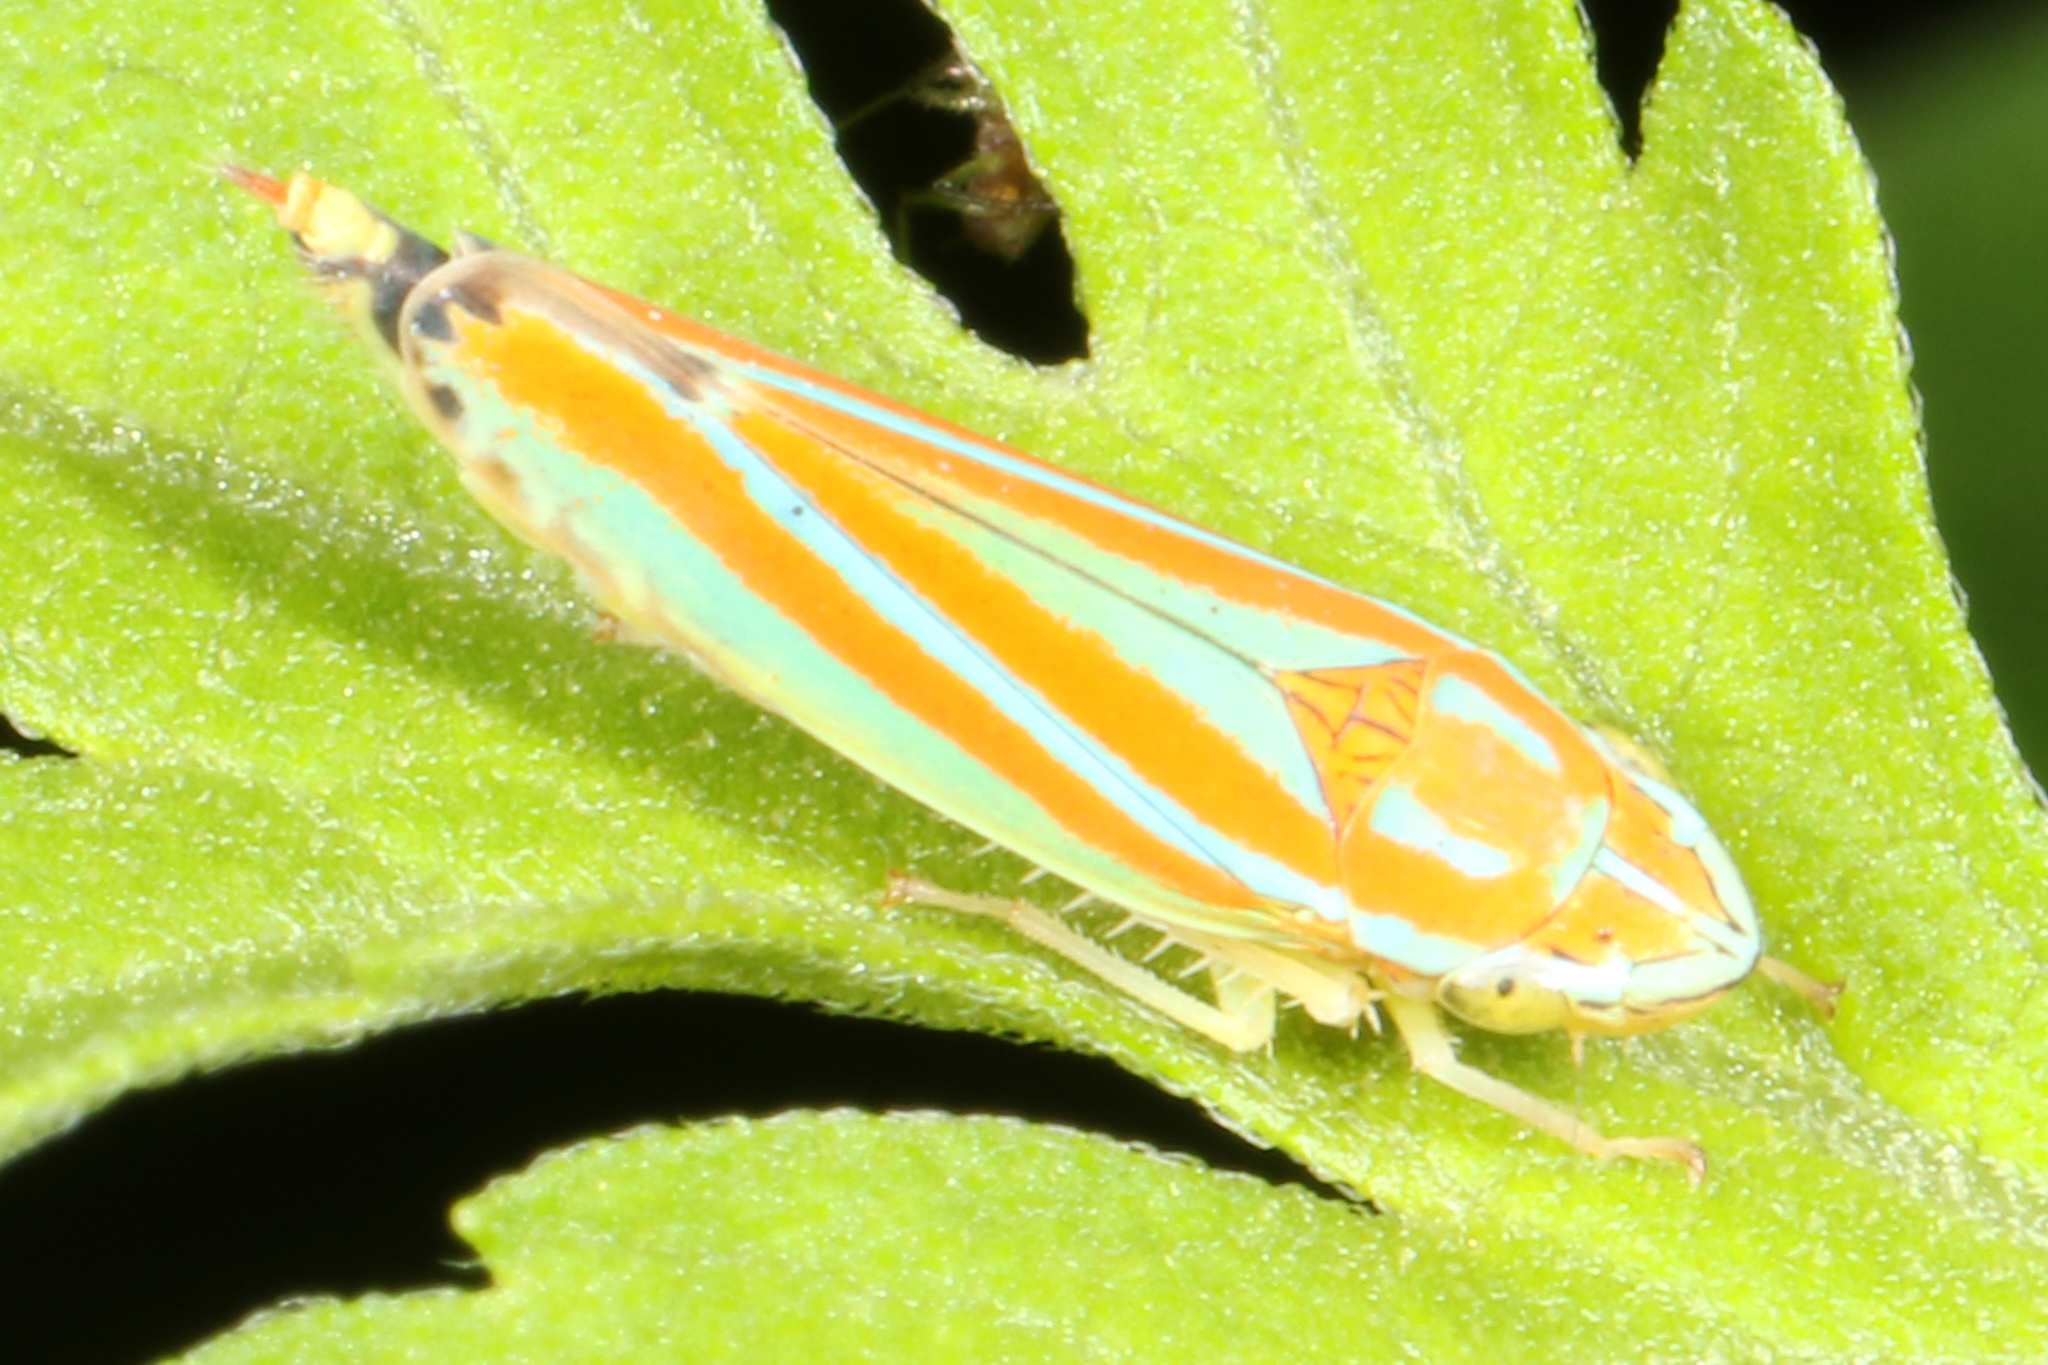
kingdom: Animalia
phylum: Arthropoda
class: Insecta
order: Hemiptera
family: Cicadellidae
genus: Graphocephala
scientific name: Graphocephala versuta
